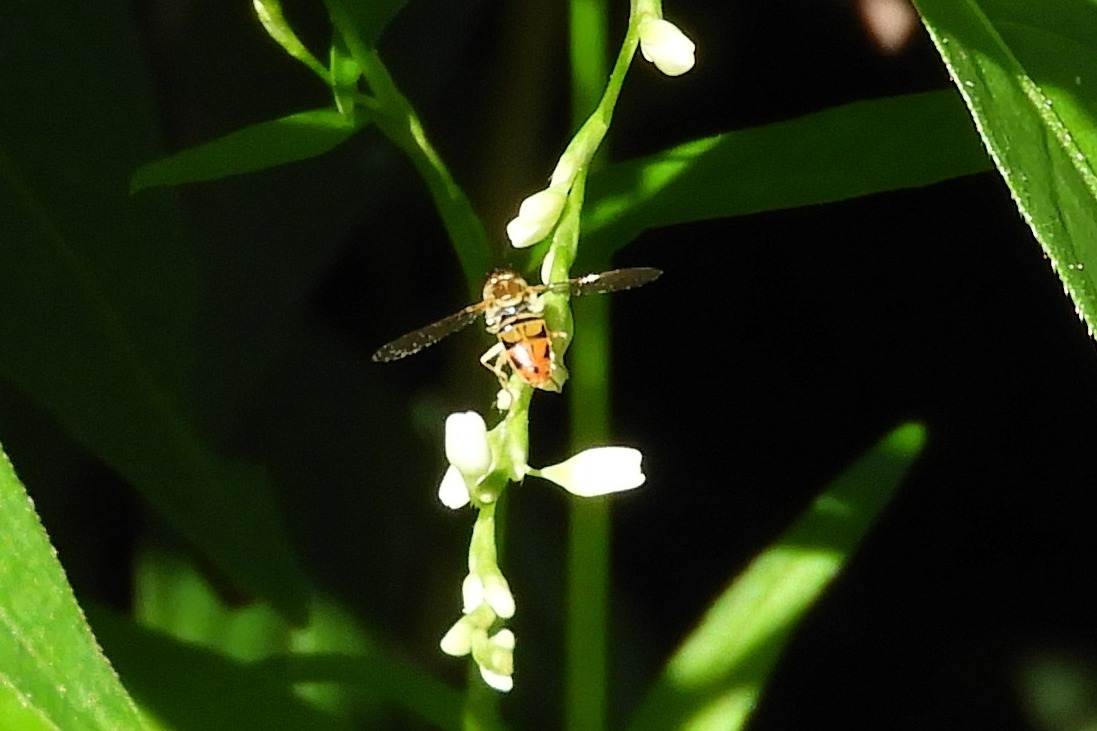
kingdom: Animalia
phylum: Arthropoda
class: Insecta
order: Diptera
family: Syrphidae
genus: Toxomerus
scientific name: Toxomerus marginatus
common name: Syrphid fly
